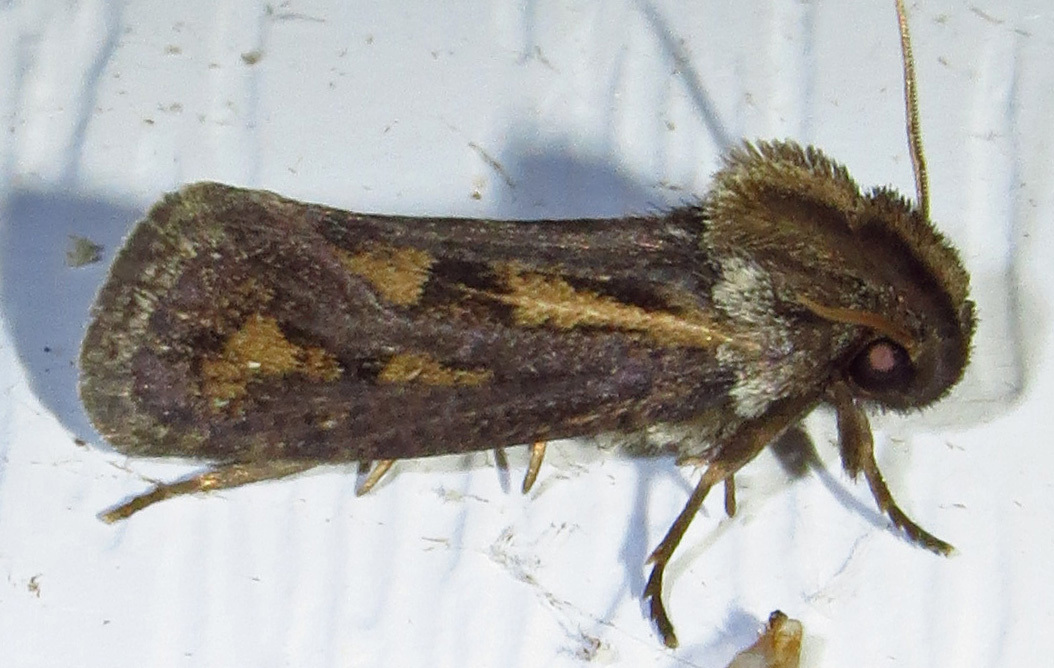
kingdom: Animalia
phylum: Arthropoda
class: Insecta
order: Lepidoptera
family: Tineidae
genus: Acrolophus
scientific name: Acrolophus popeanella
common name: Clemens' grass tubeworm moth
